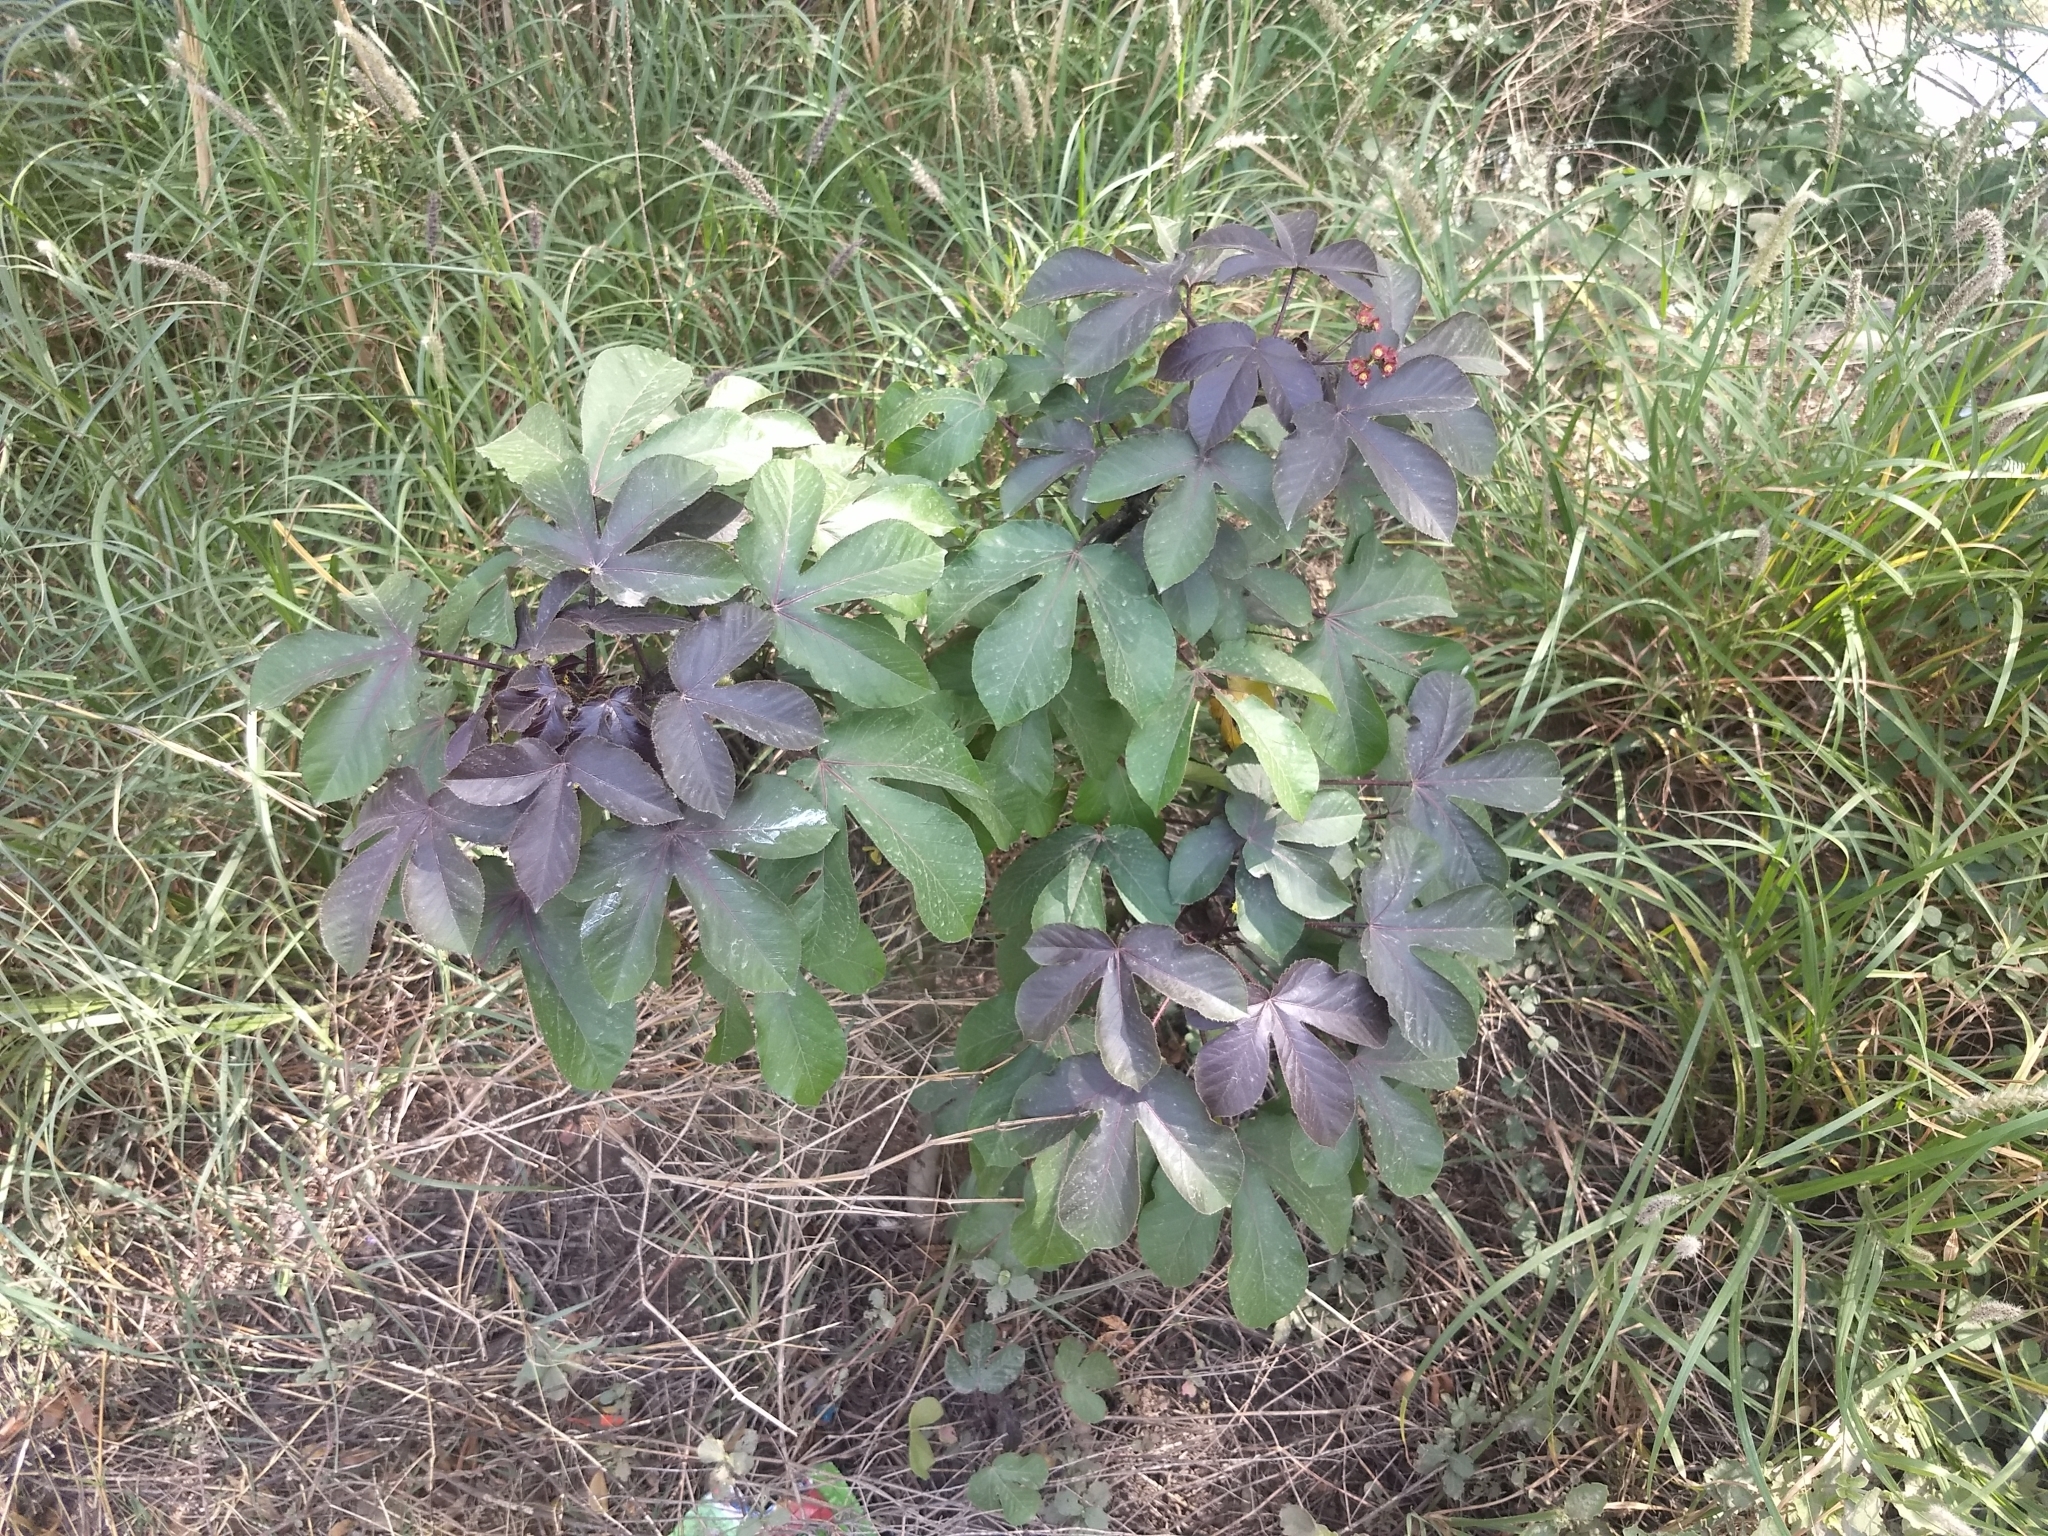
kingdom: Plantae
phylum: Tracheophyta
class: Magnoliopsida
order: Malpighiales
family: Euphorbiaceae
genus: Jatropha
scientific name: Jatropha gossypiifolia
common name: Bellyache bush
